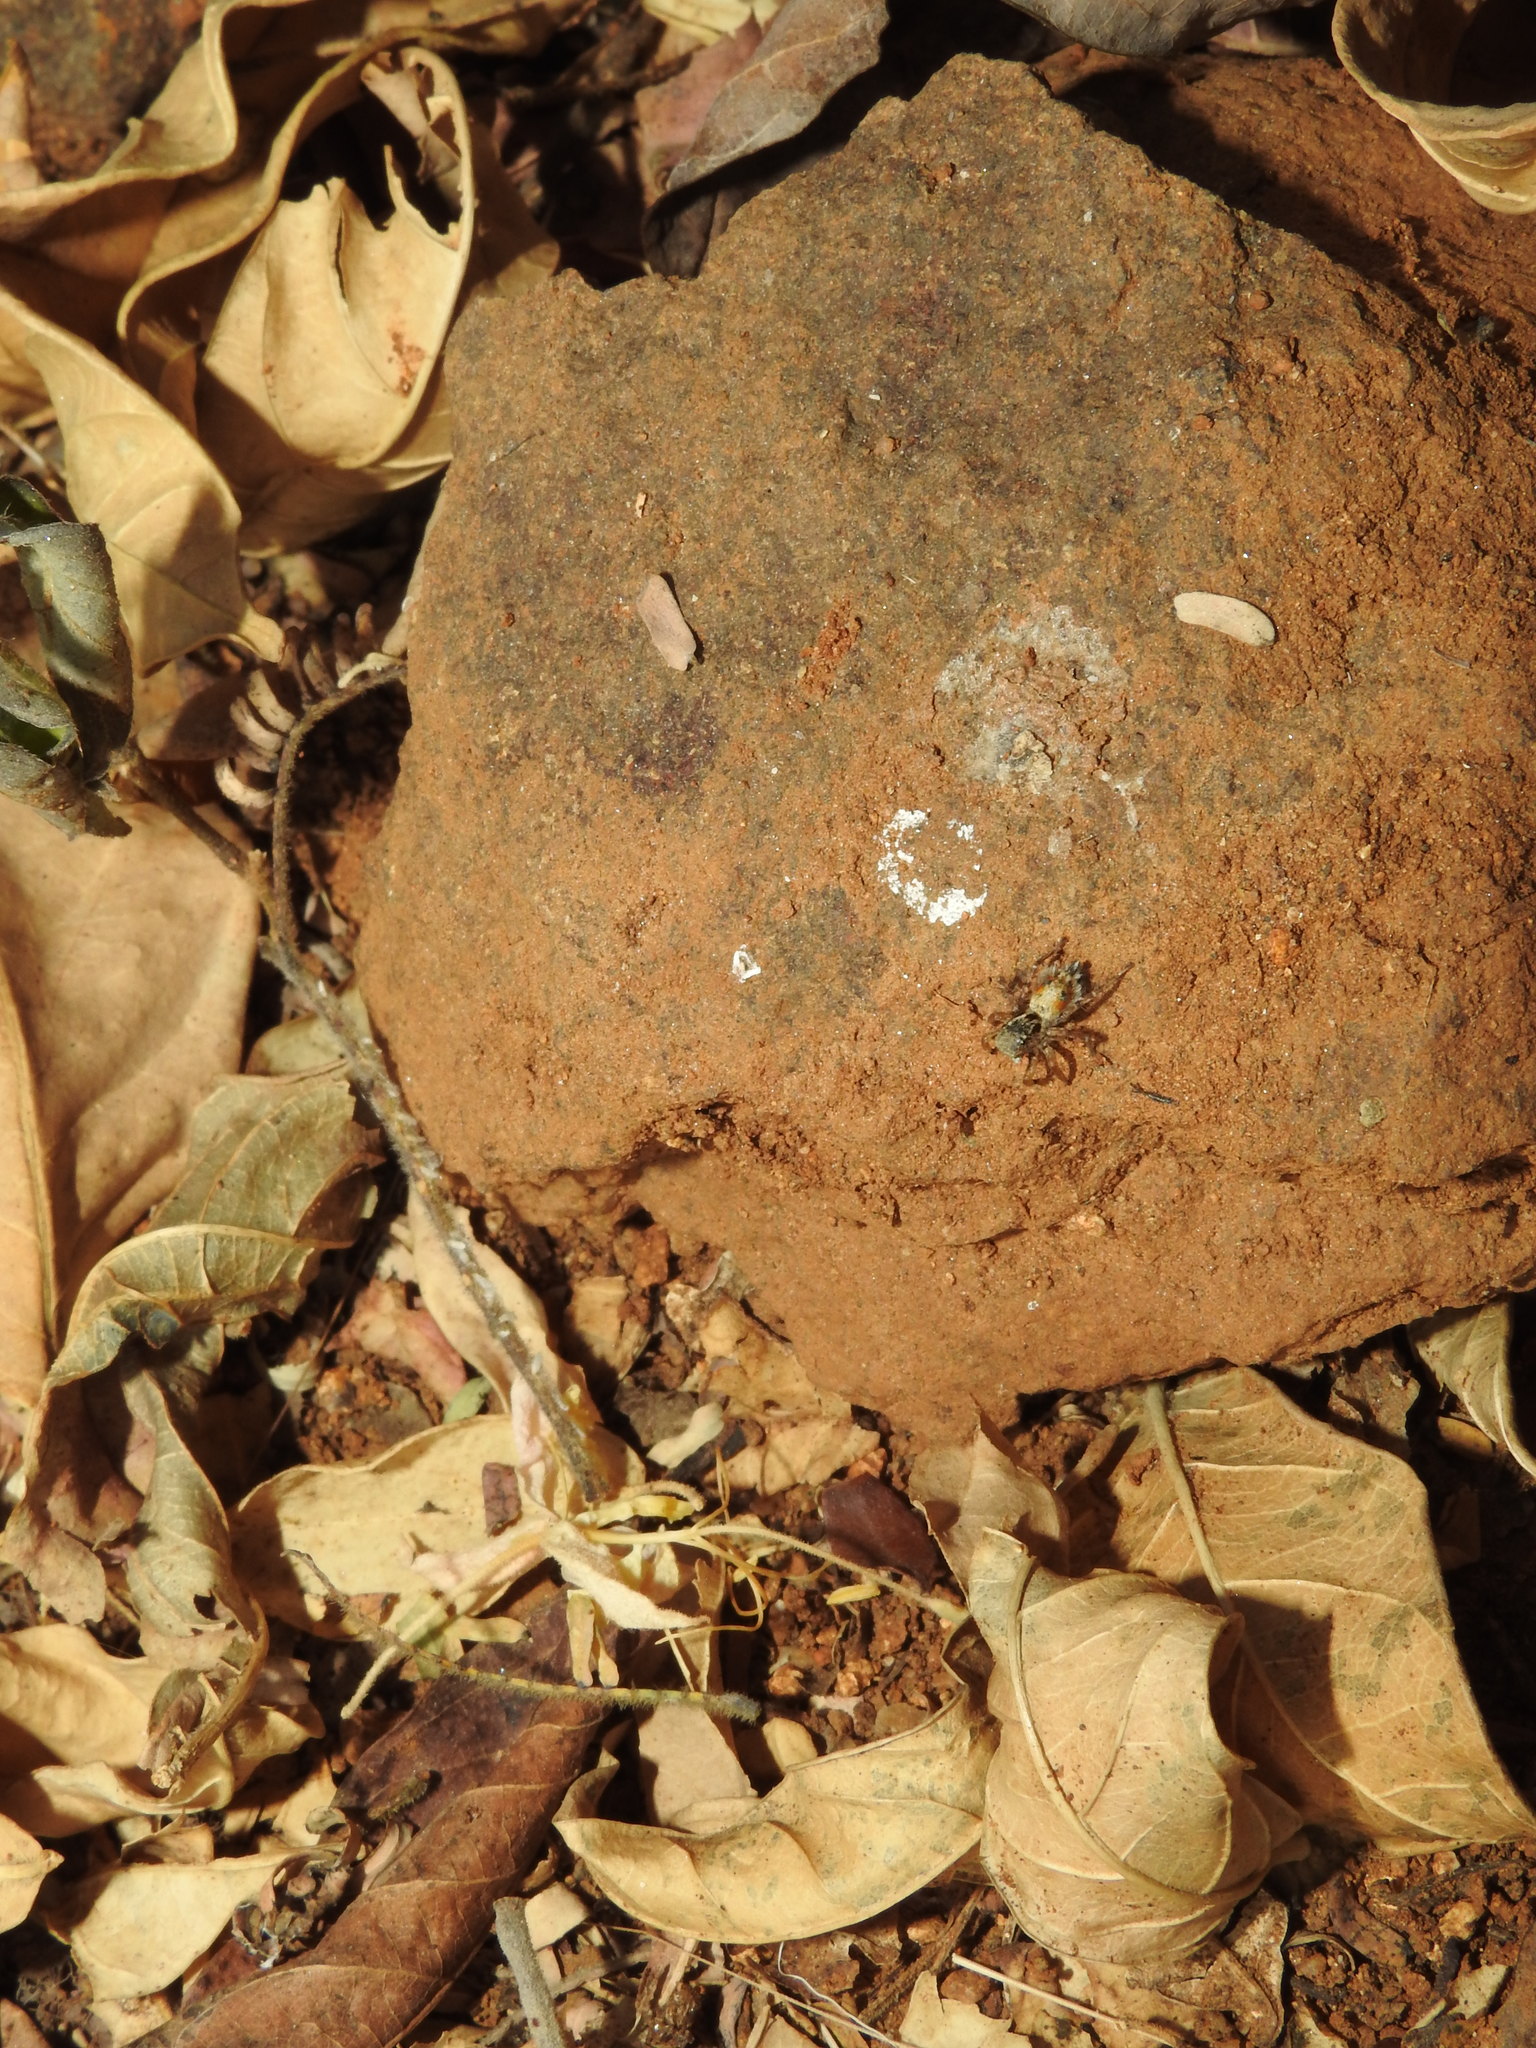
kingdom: Animalia
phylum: Arthropoda
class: Arachnida
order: Araneae
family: Salticidae
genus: Stenaelurillus
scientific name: Stenaelurillus metallicus
